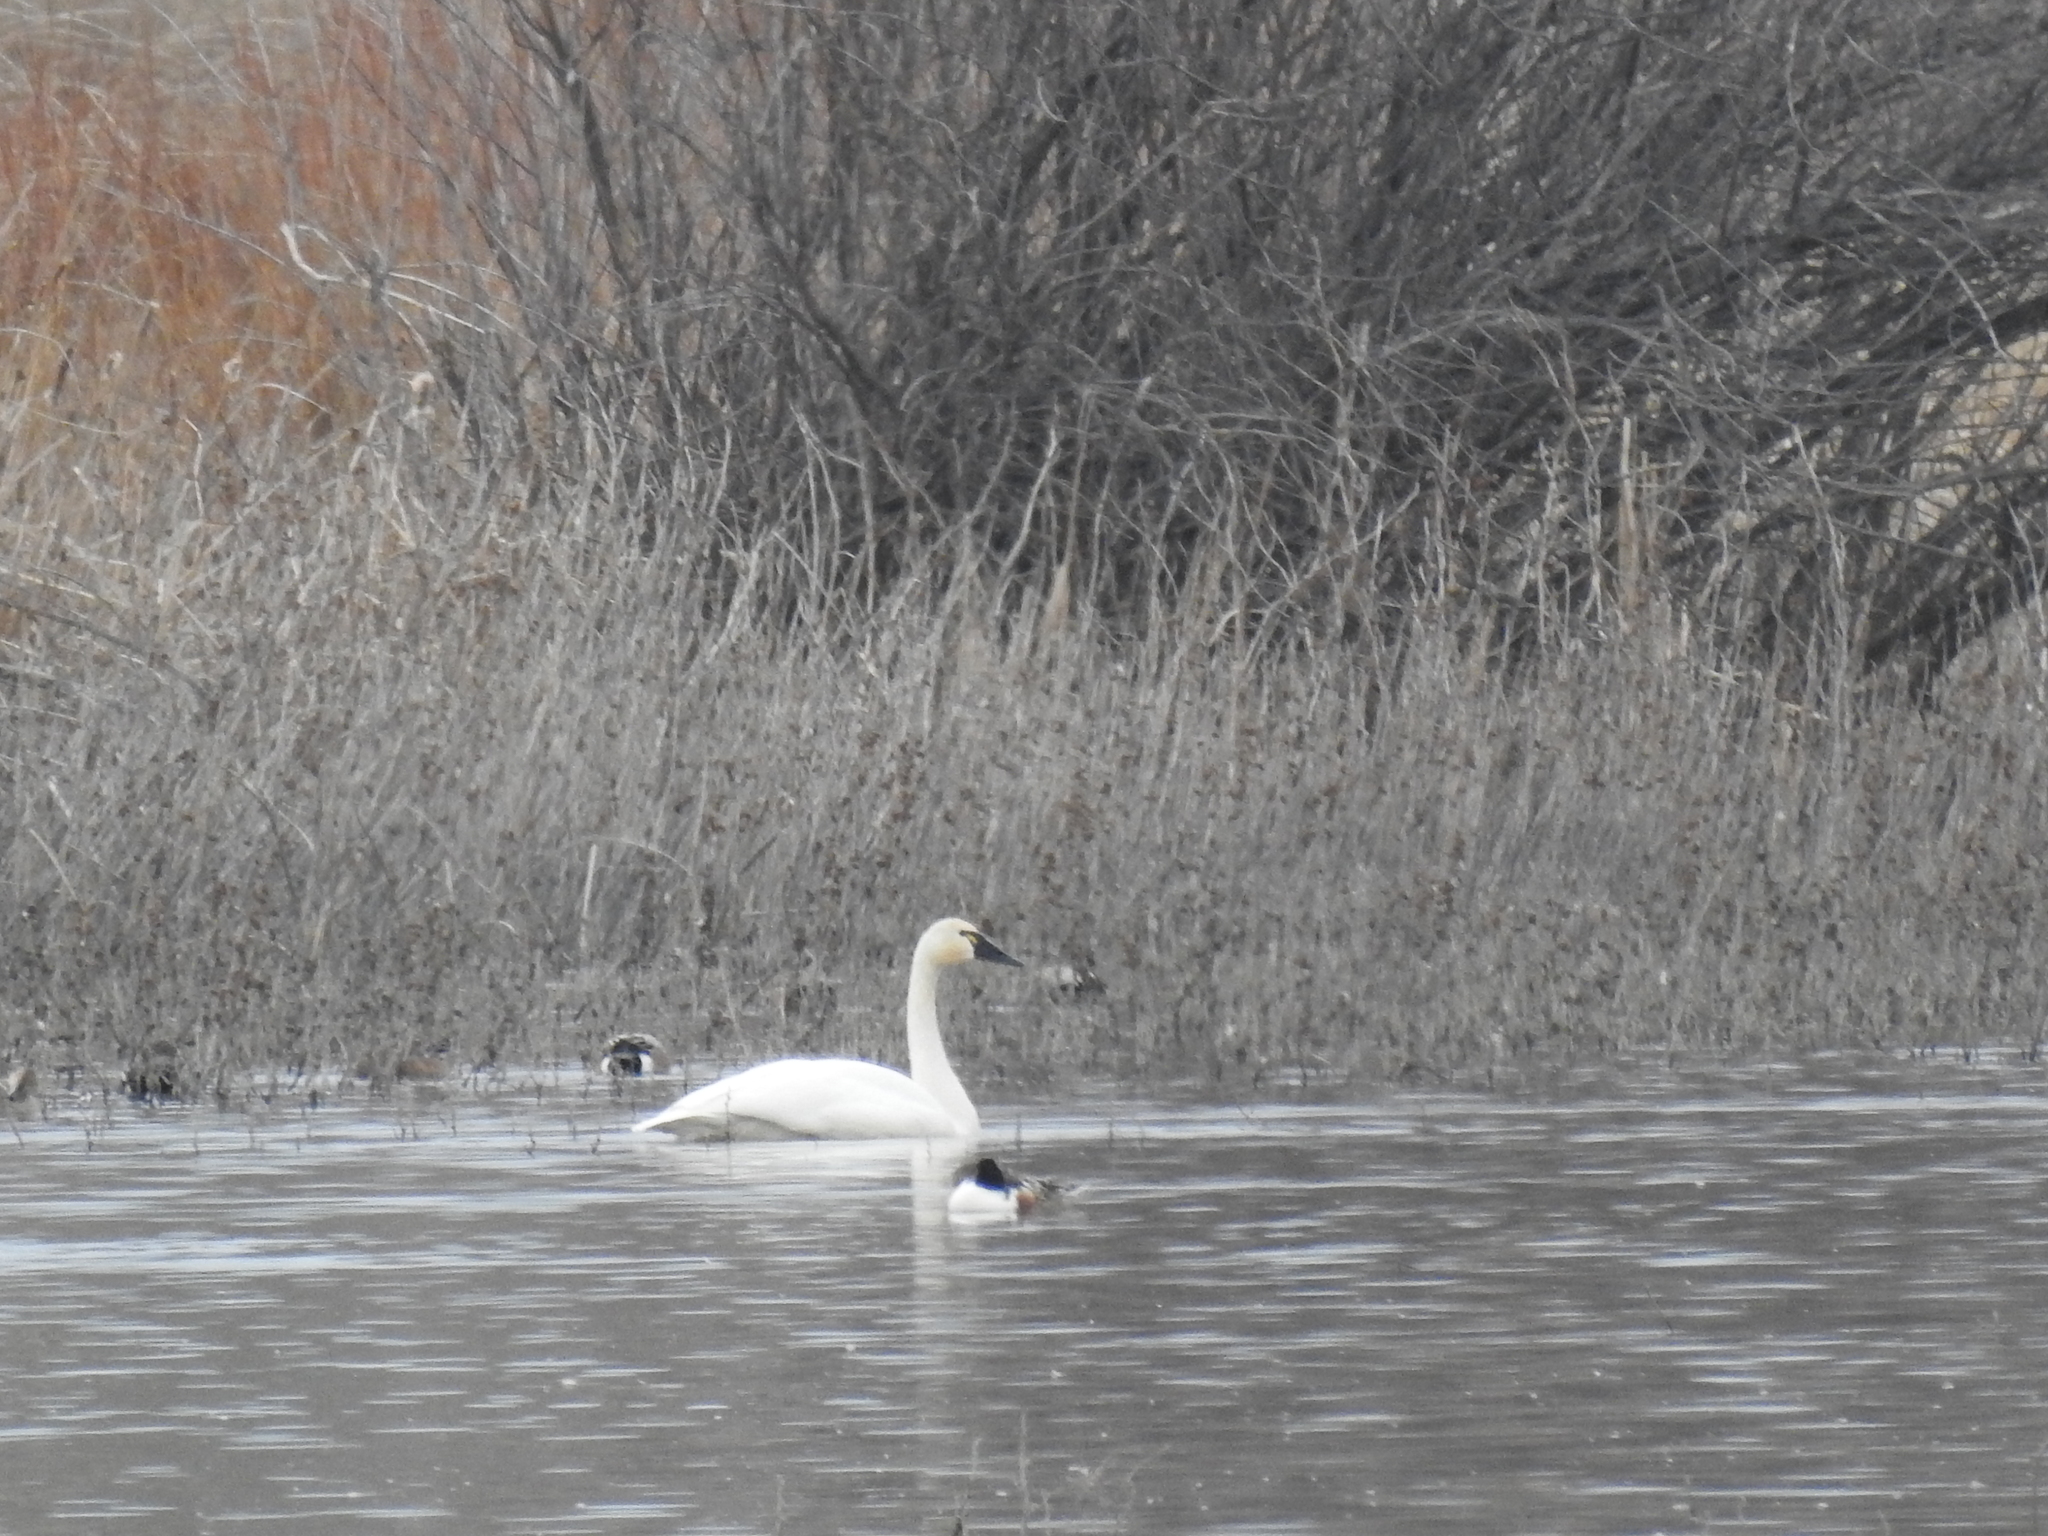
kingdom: Animalia
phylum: Chordata
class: Aves
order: Anseriformes
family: Anatidae
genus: Cygnus
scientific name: Cygnus columbianus
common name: Tundra swan
